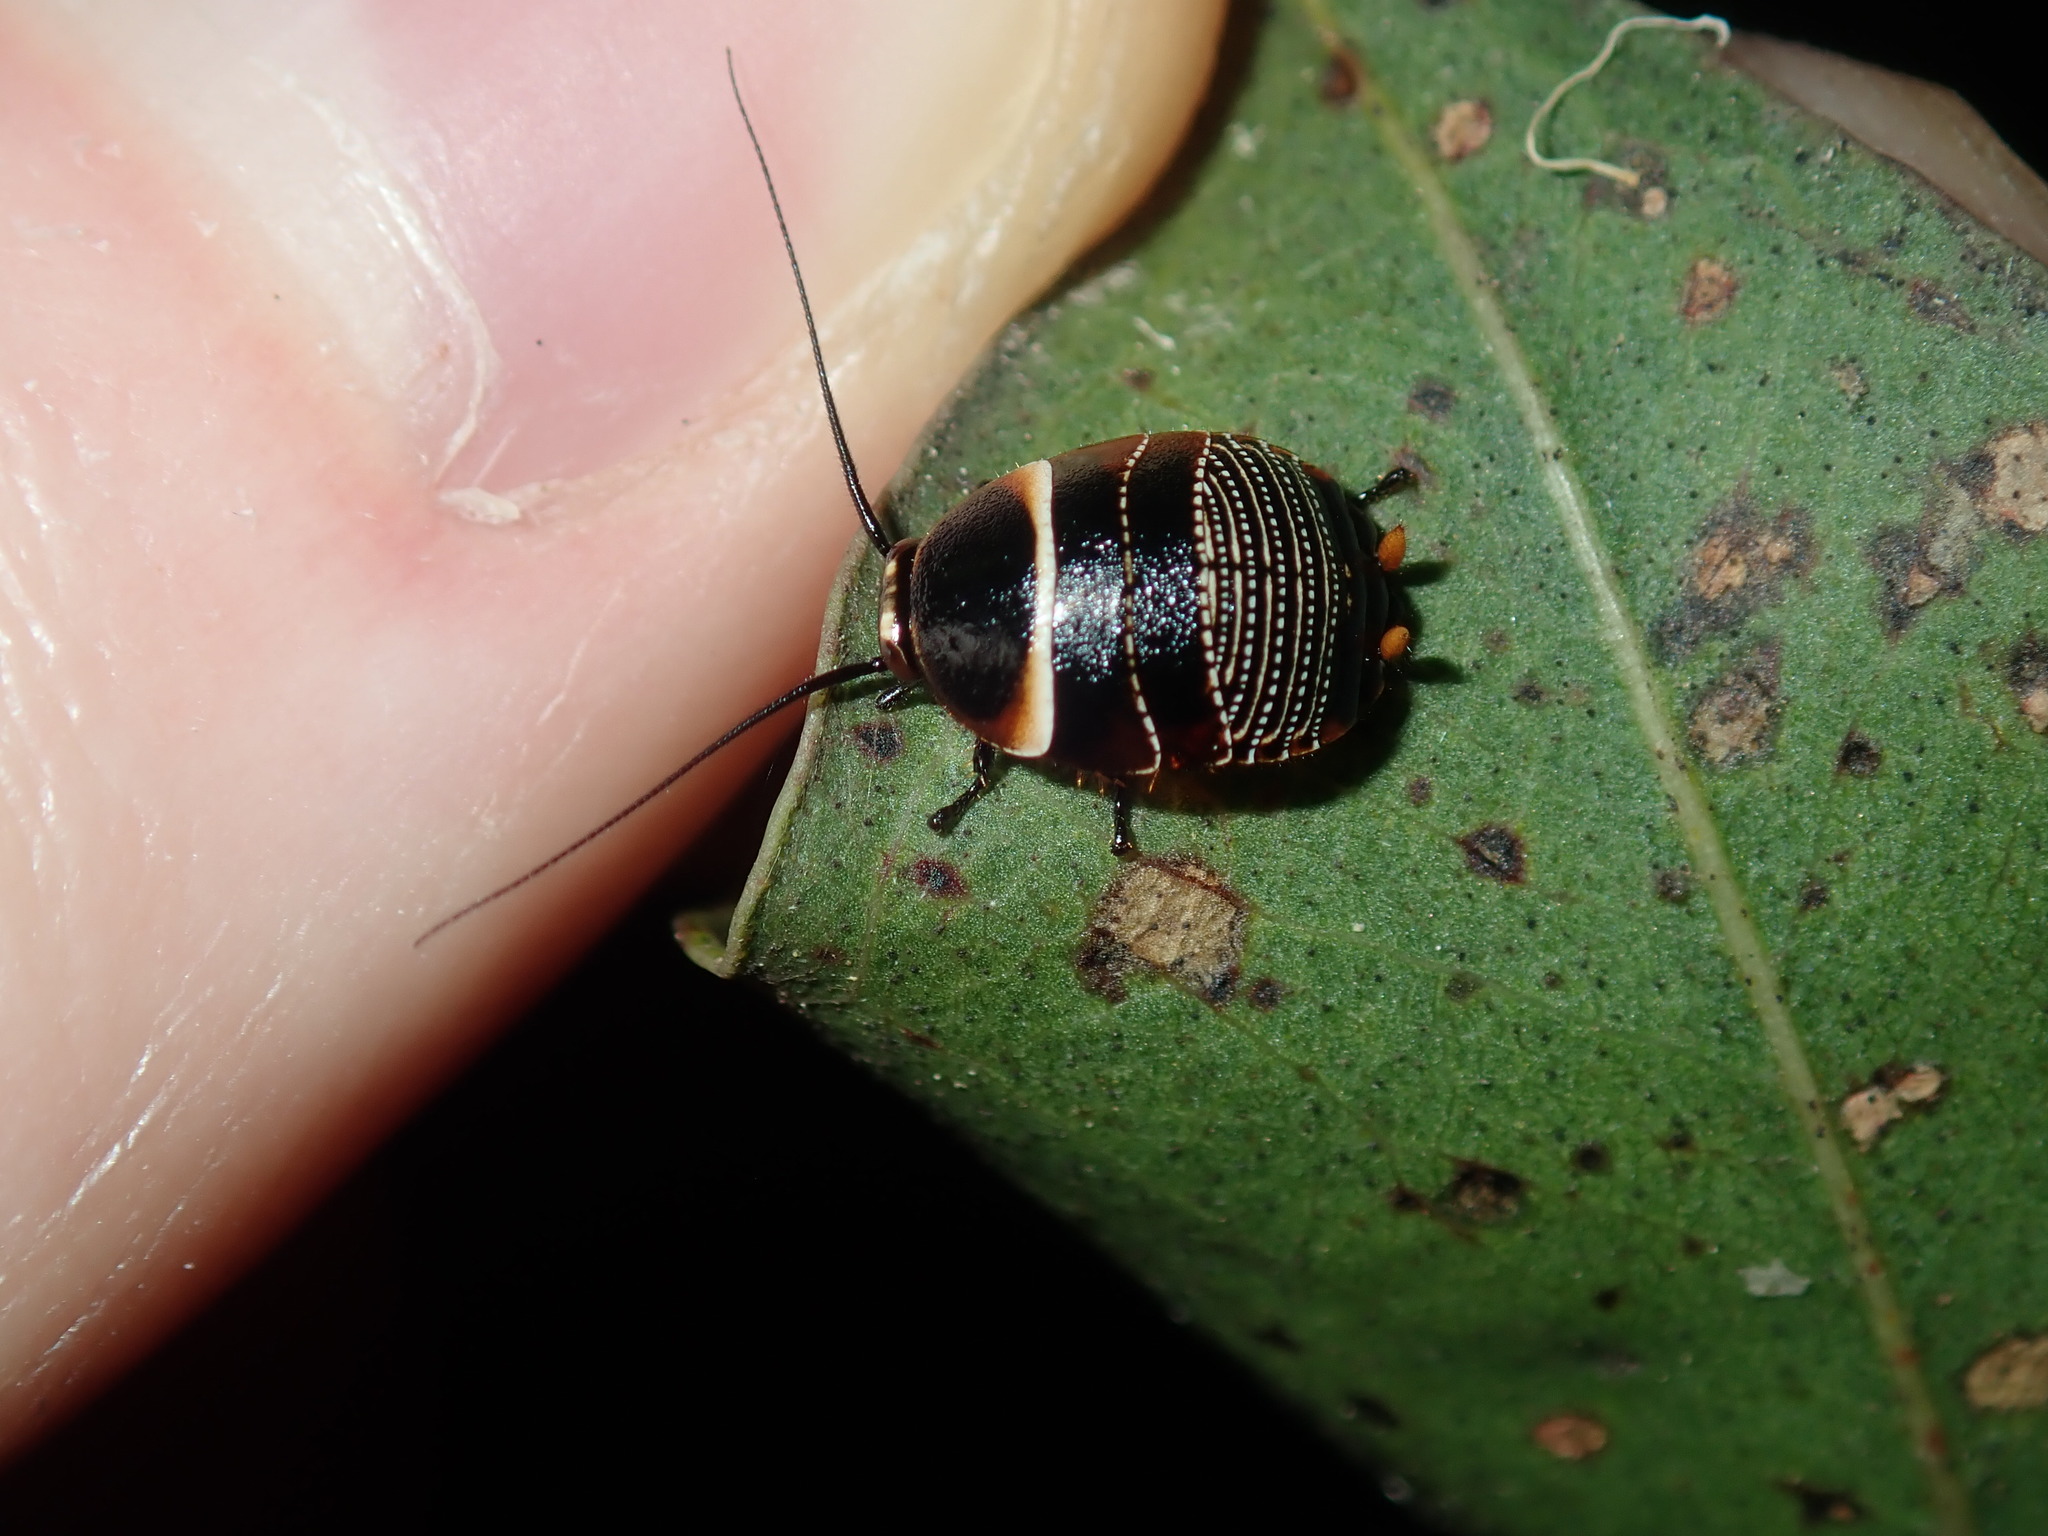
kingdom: Animalia
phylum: Arthropoda
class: Insecta
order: Blattodea
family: Ectobiidae
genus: Ellipsidion
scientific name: Ellipsidion australe
